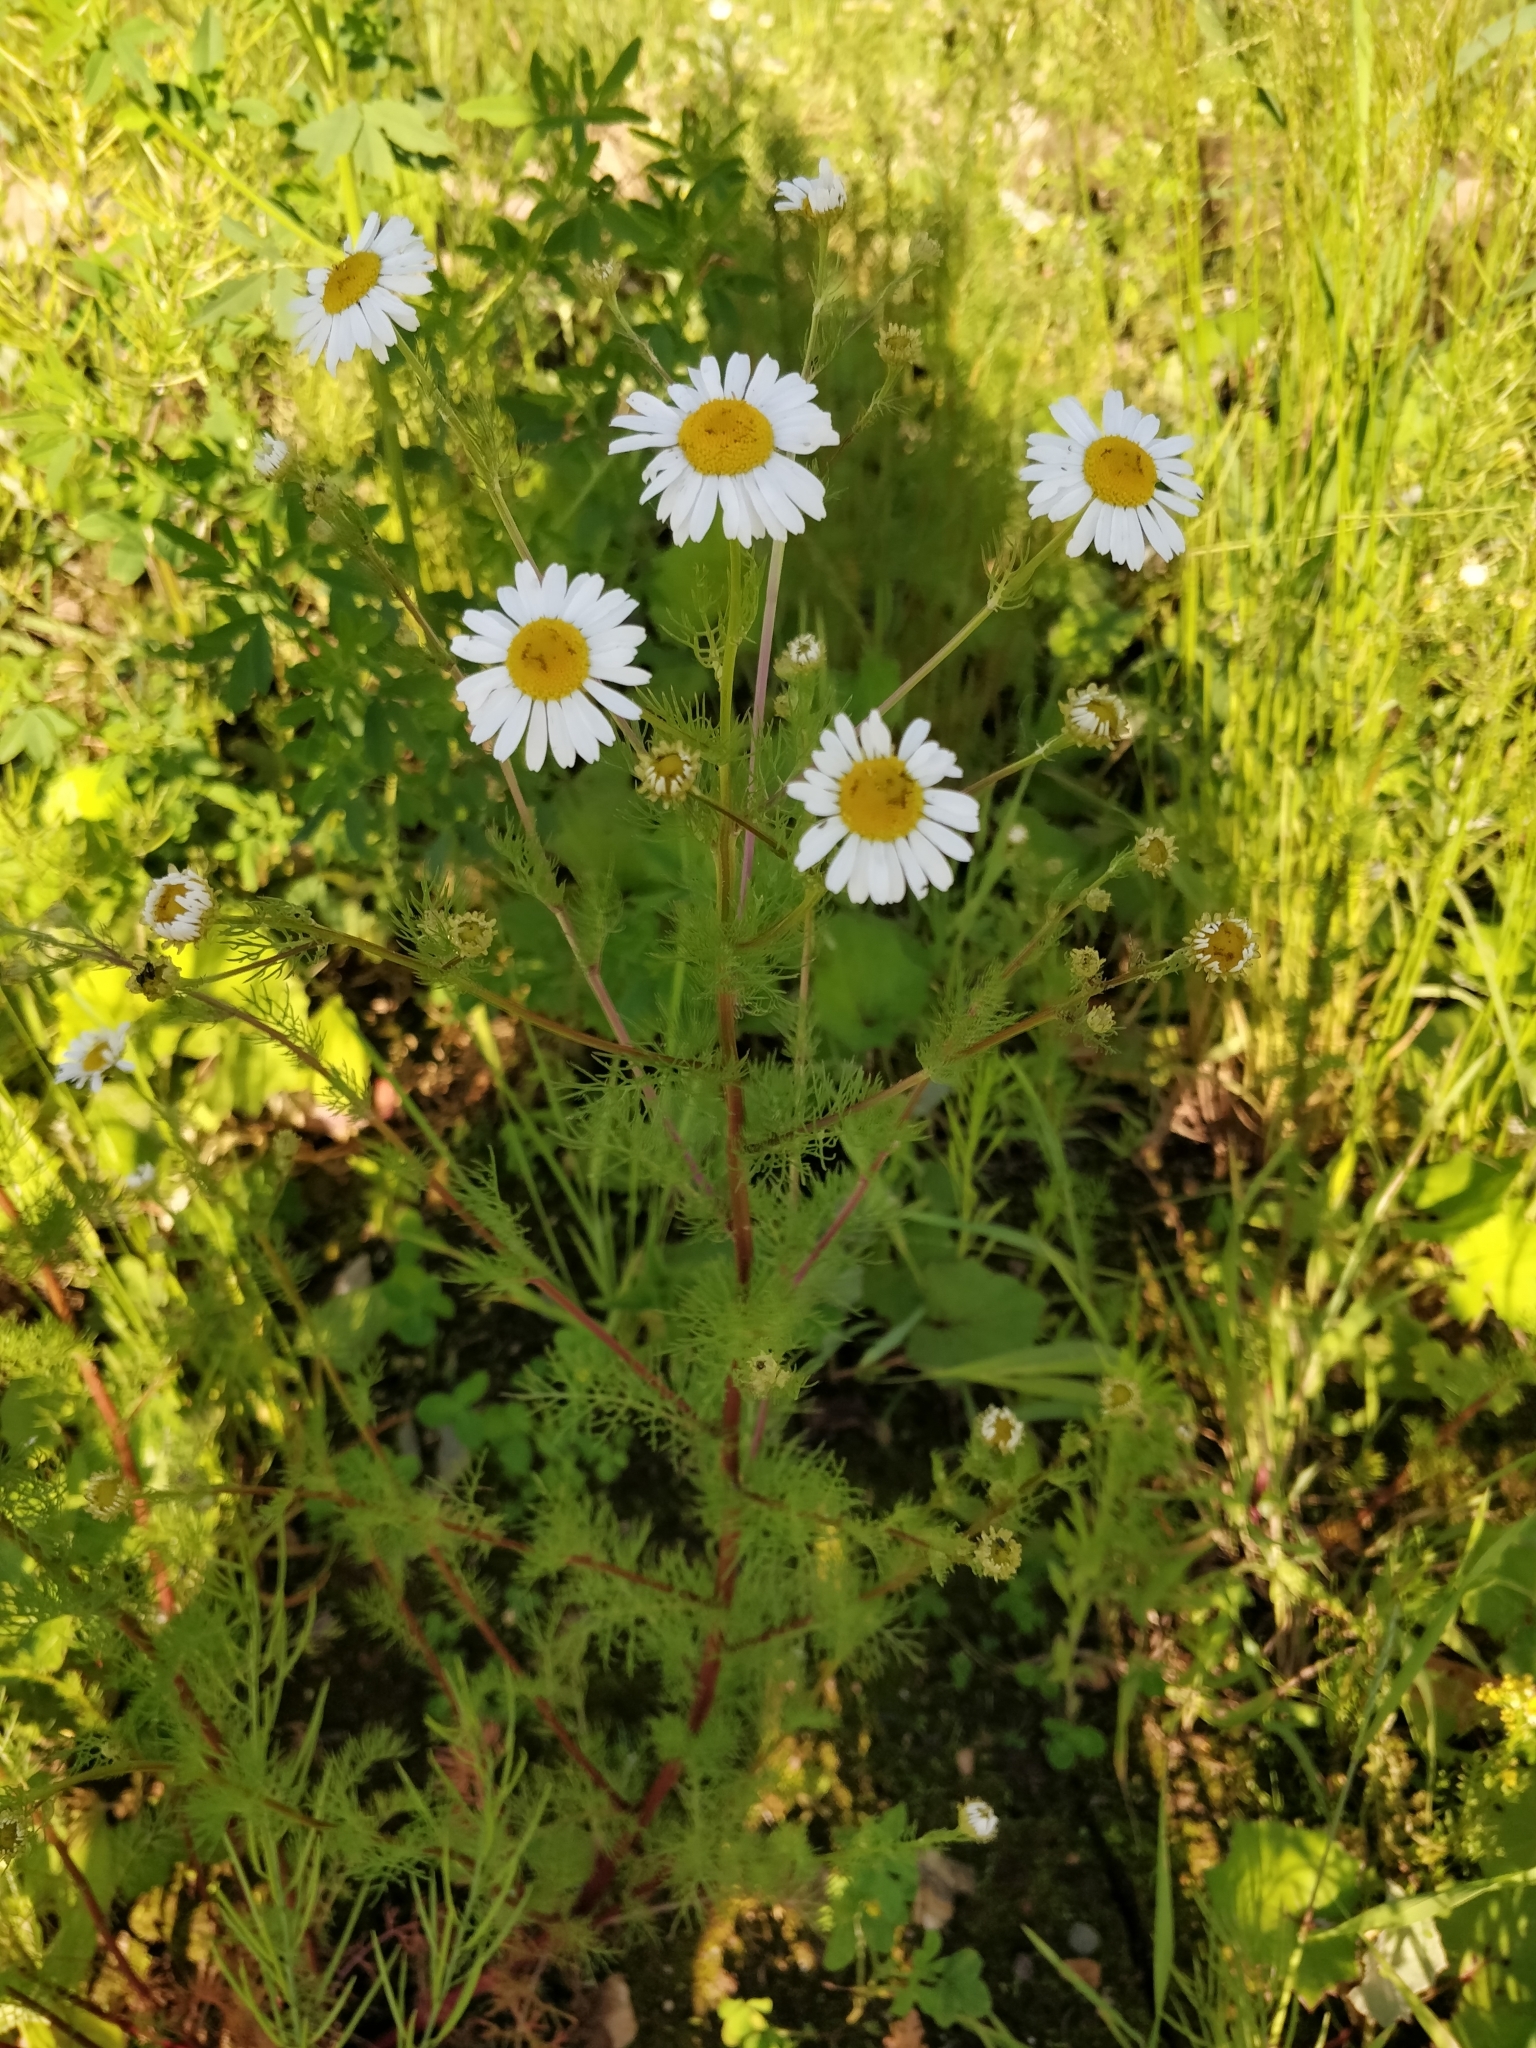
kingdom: Plantae
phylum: Tracheophyta
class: Magnoliopsida
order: Asterales
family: Asteraceae
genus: Tripleurospermum
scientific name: Tripleurospermum inodorum
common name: Scentless mayweed
